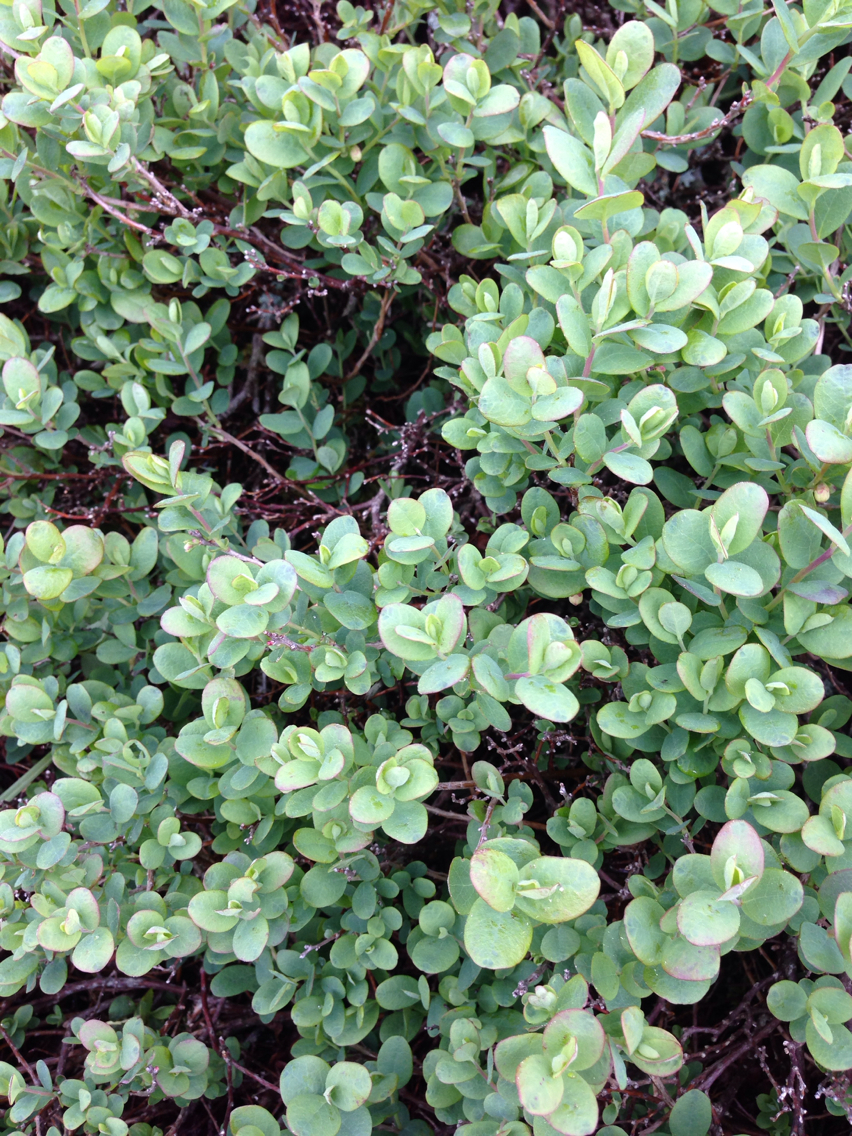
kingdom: Plantae
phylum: Tracheophyta
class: Magnoliopsida
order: Ericales
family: Ericaceae
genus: Vaccinium
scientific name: Vaccinium uliginosum
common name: Bog bilberry
